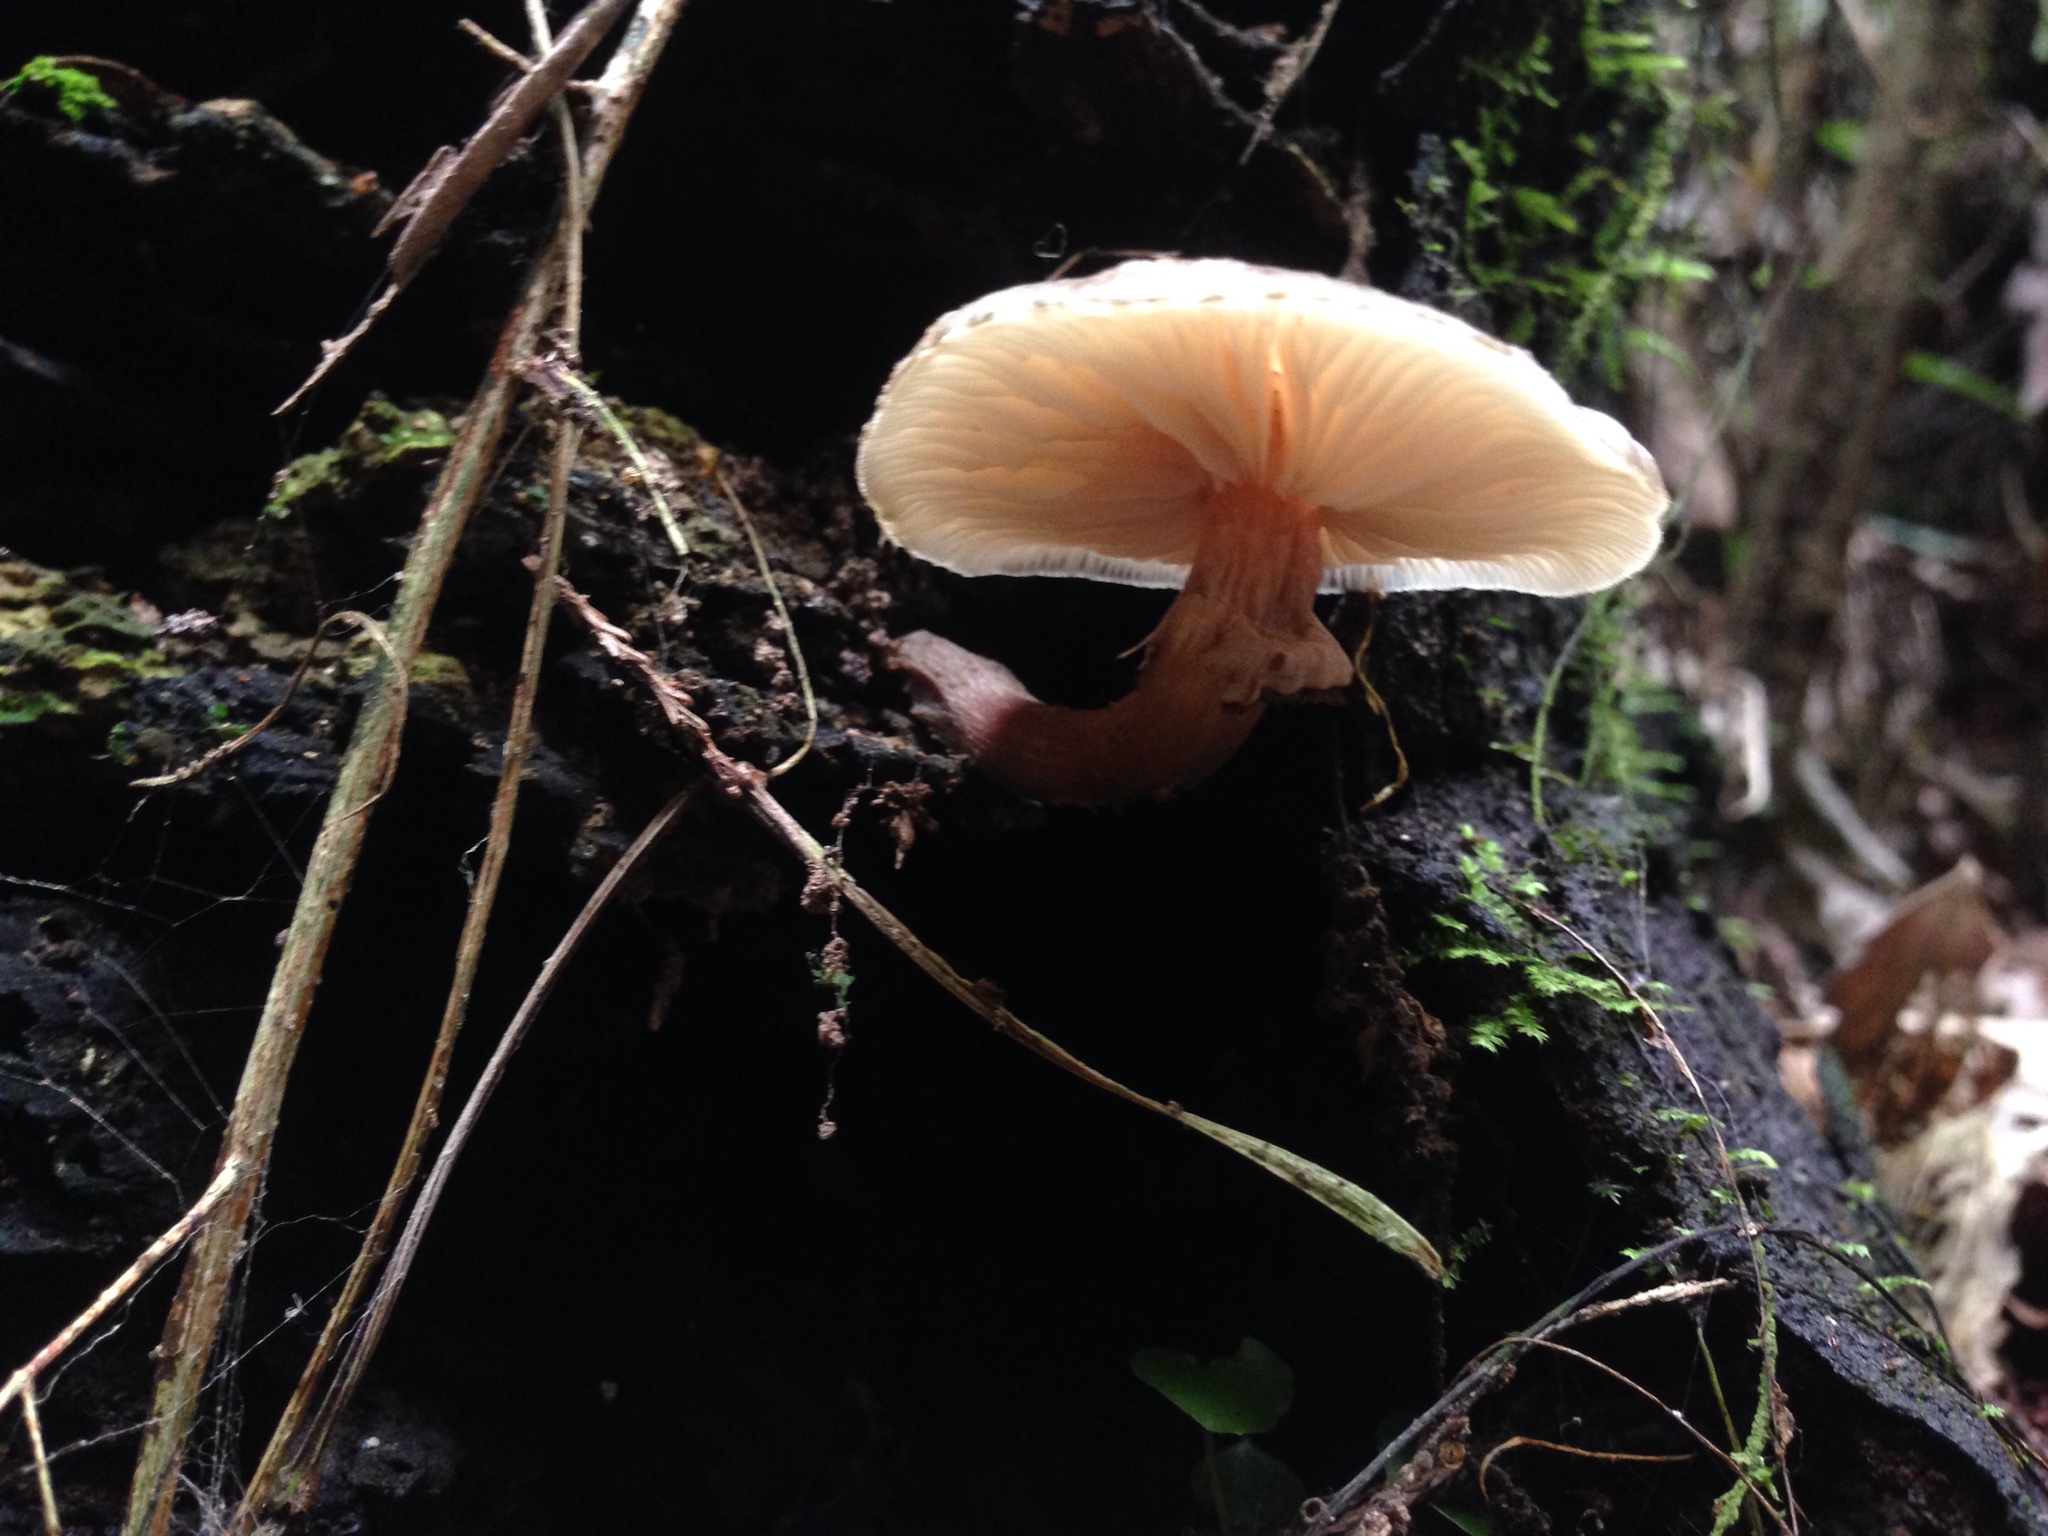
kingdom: Fungi
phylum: Basidiomycota
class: Agaricomycetes
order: Agaricales
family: Physalacriaceae
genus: Armillaria
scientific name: Armillaria novae-zelandiae
